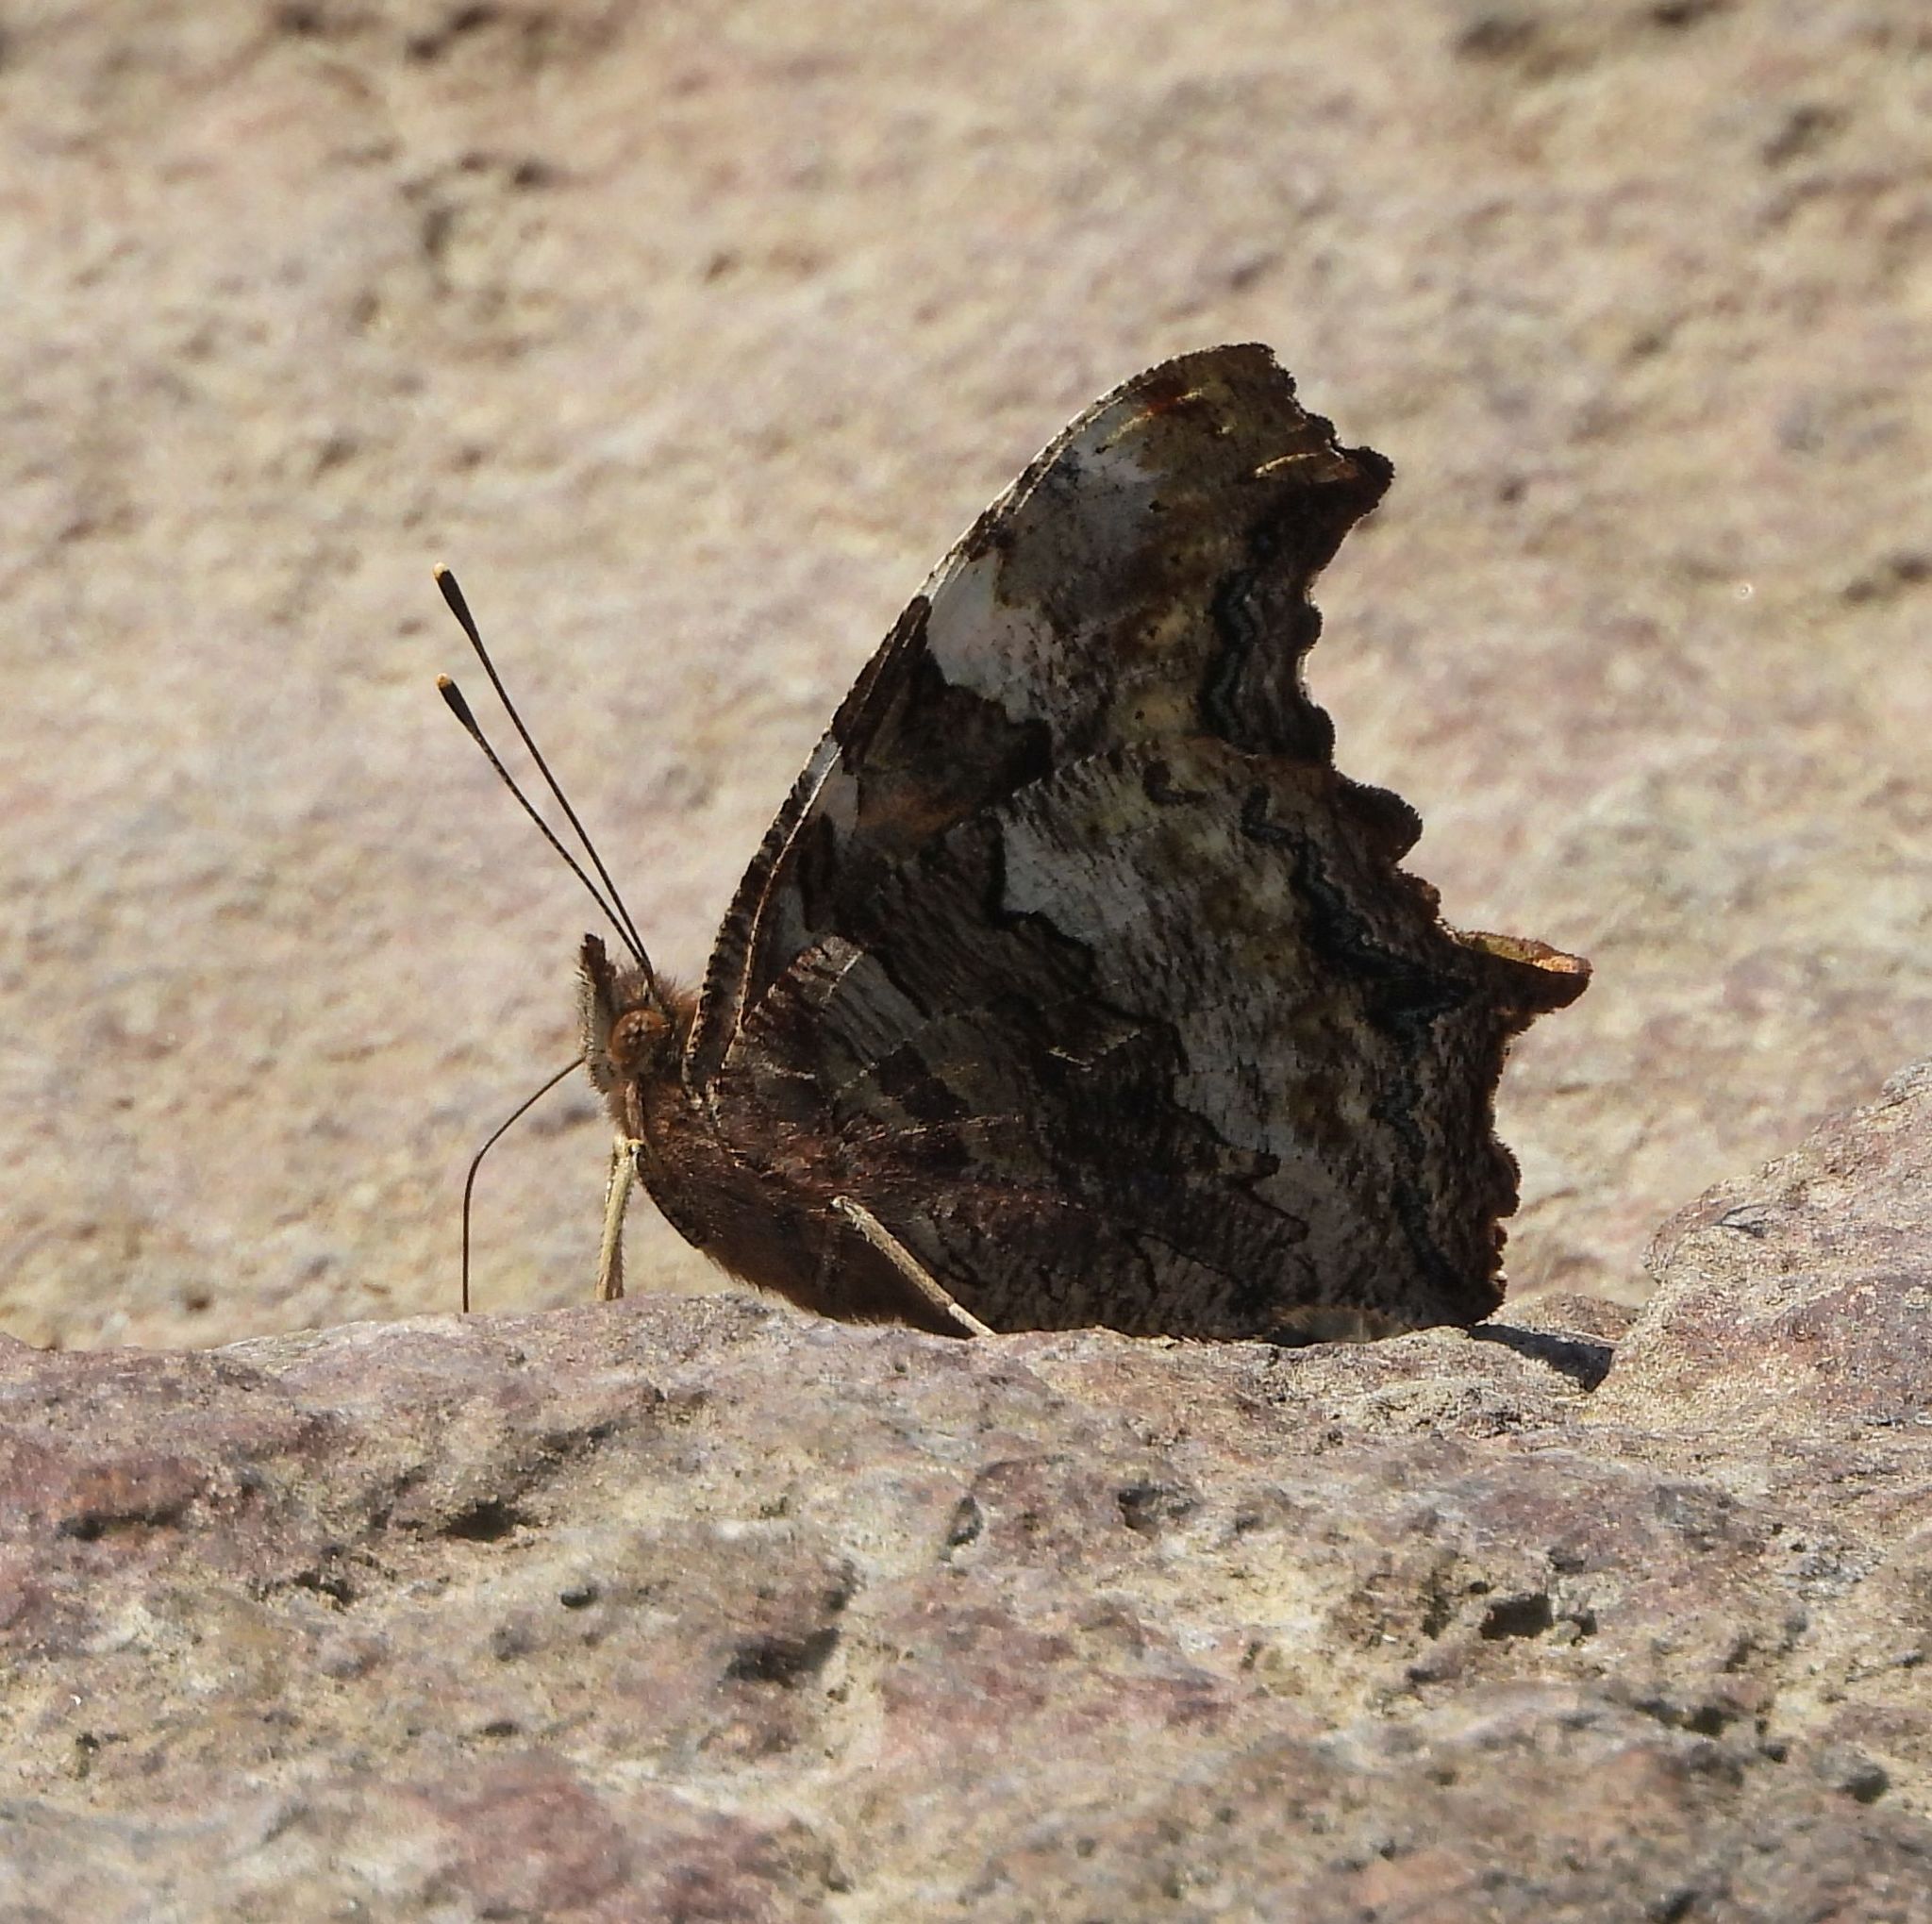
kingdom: Animalia
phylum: Arthropoda
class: Insecta
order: Lepidoptera
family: Nymphalidae
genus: Polygonia
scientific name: Polygonia vaualbum
